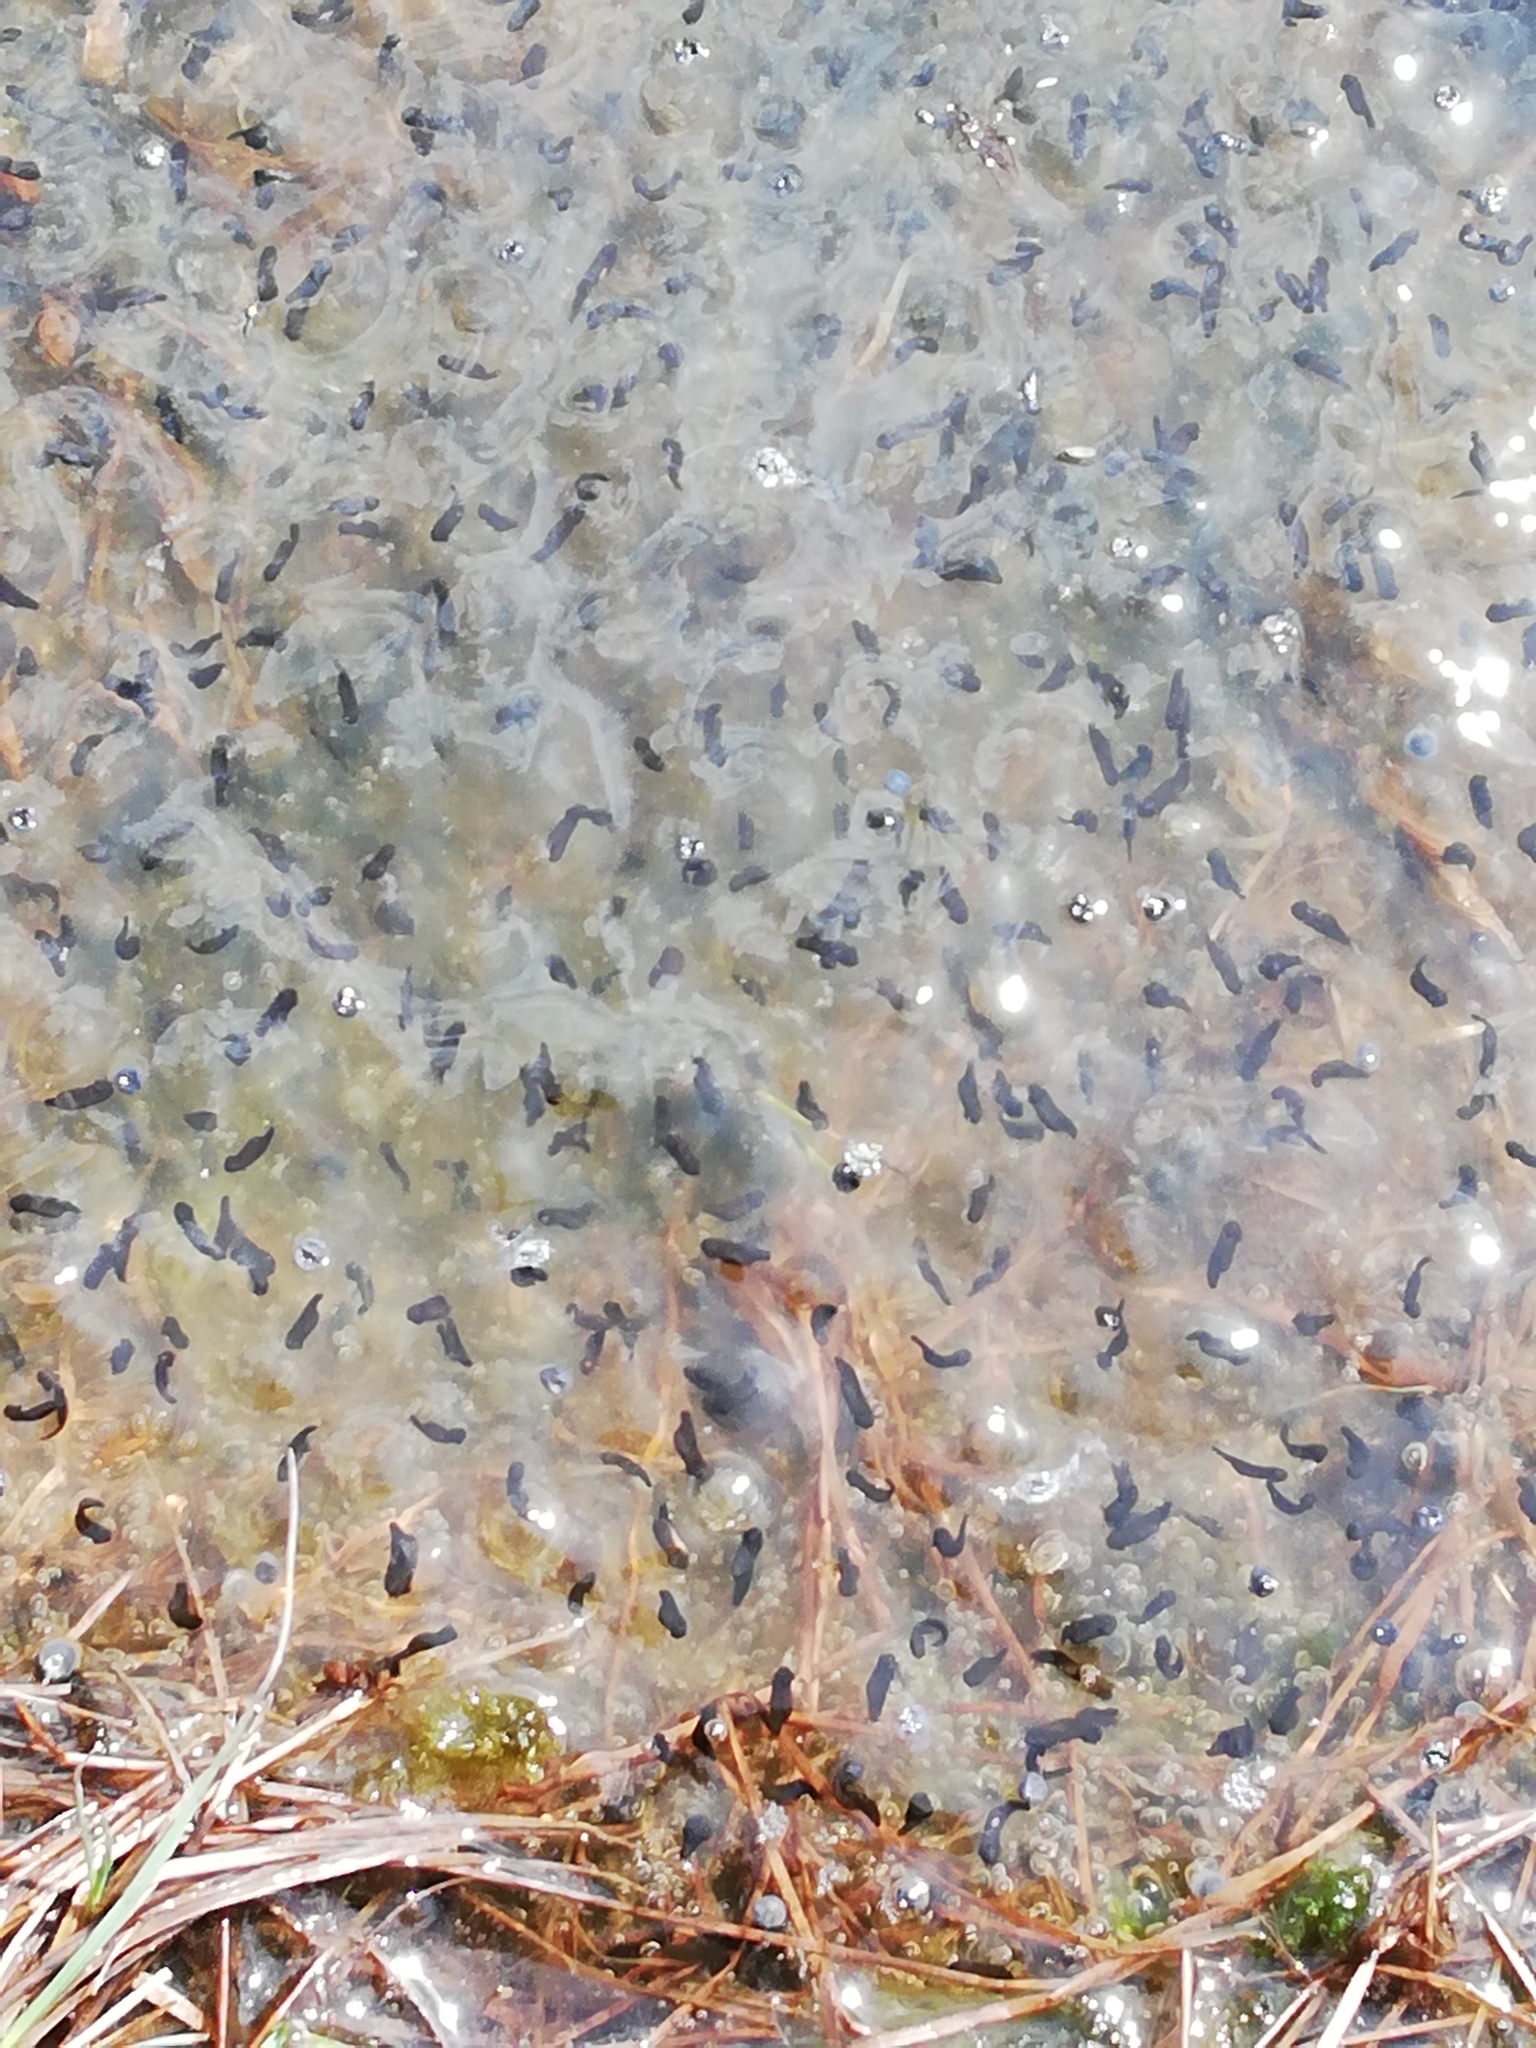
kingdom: Animalia
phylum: Chordata
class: Amphibia
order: Anura
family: Ranidae
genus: Rana
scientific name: Rana temporaria
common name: Common frog
